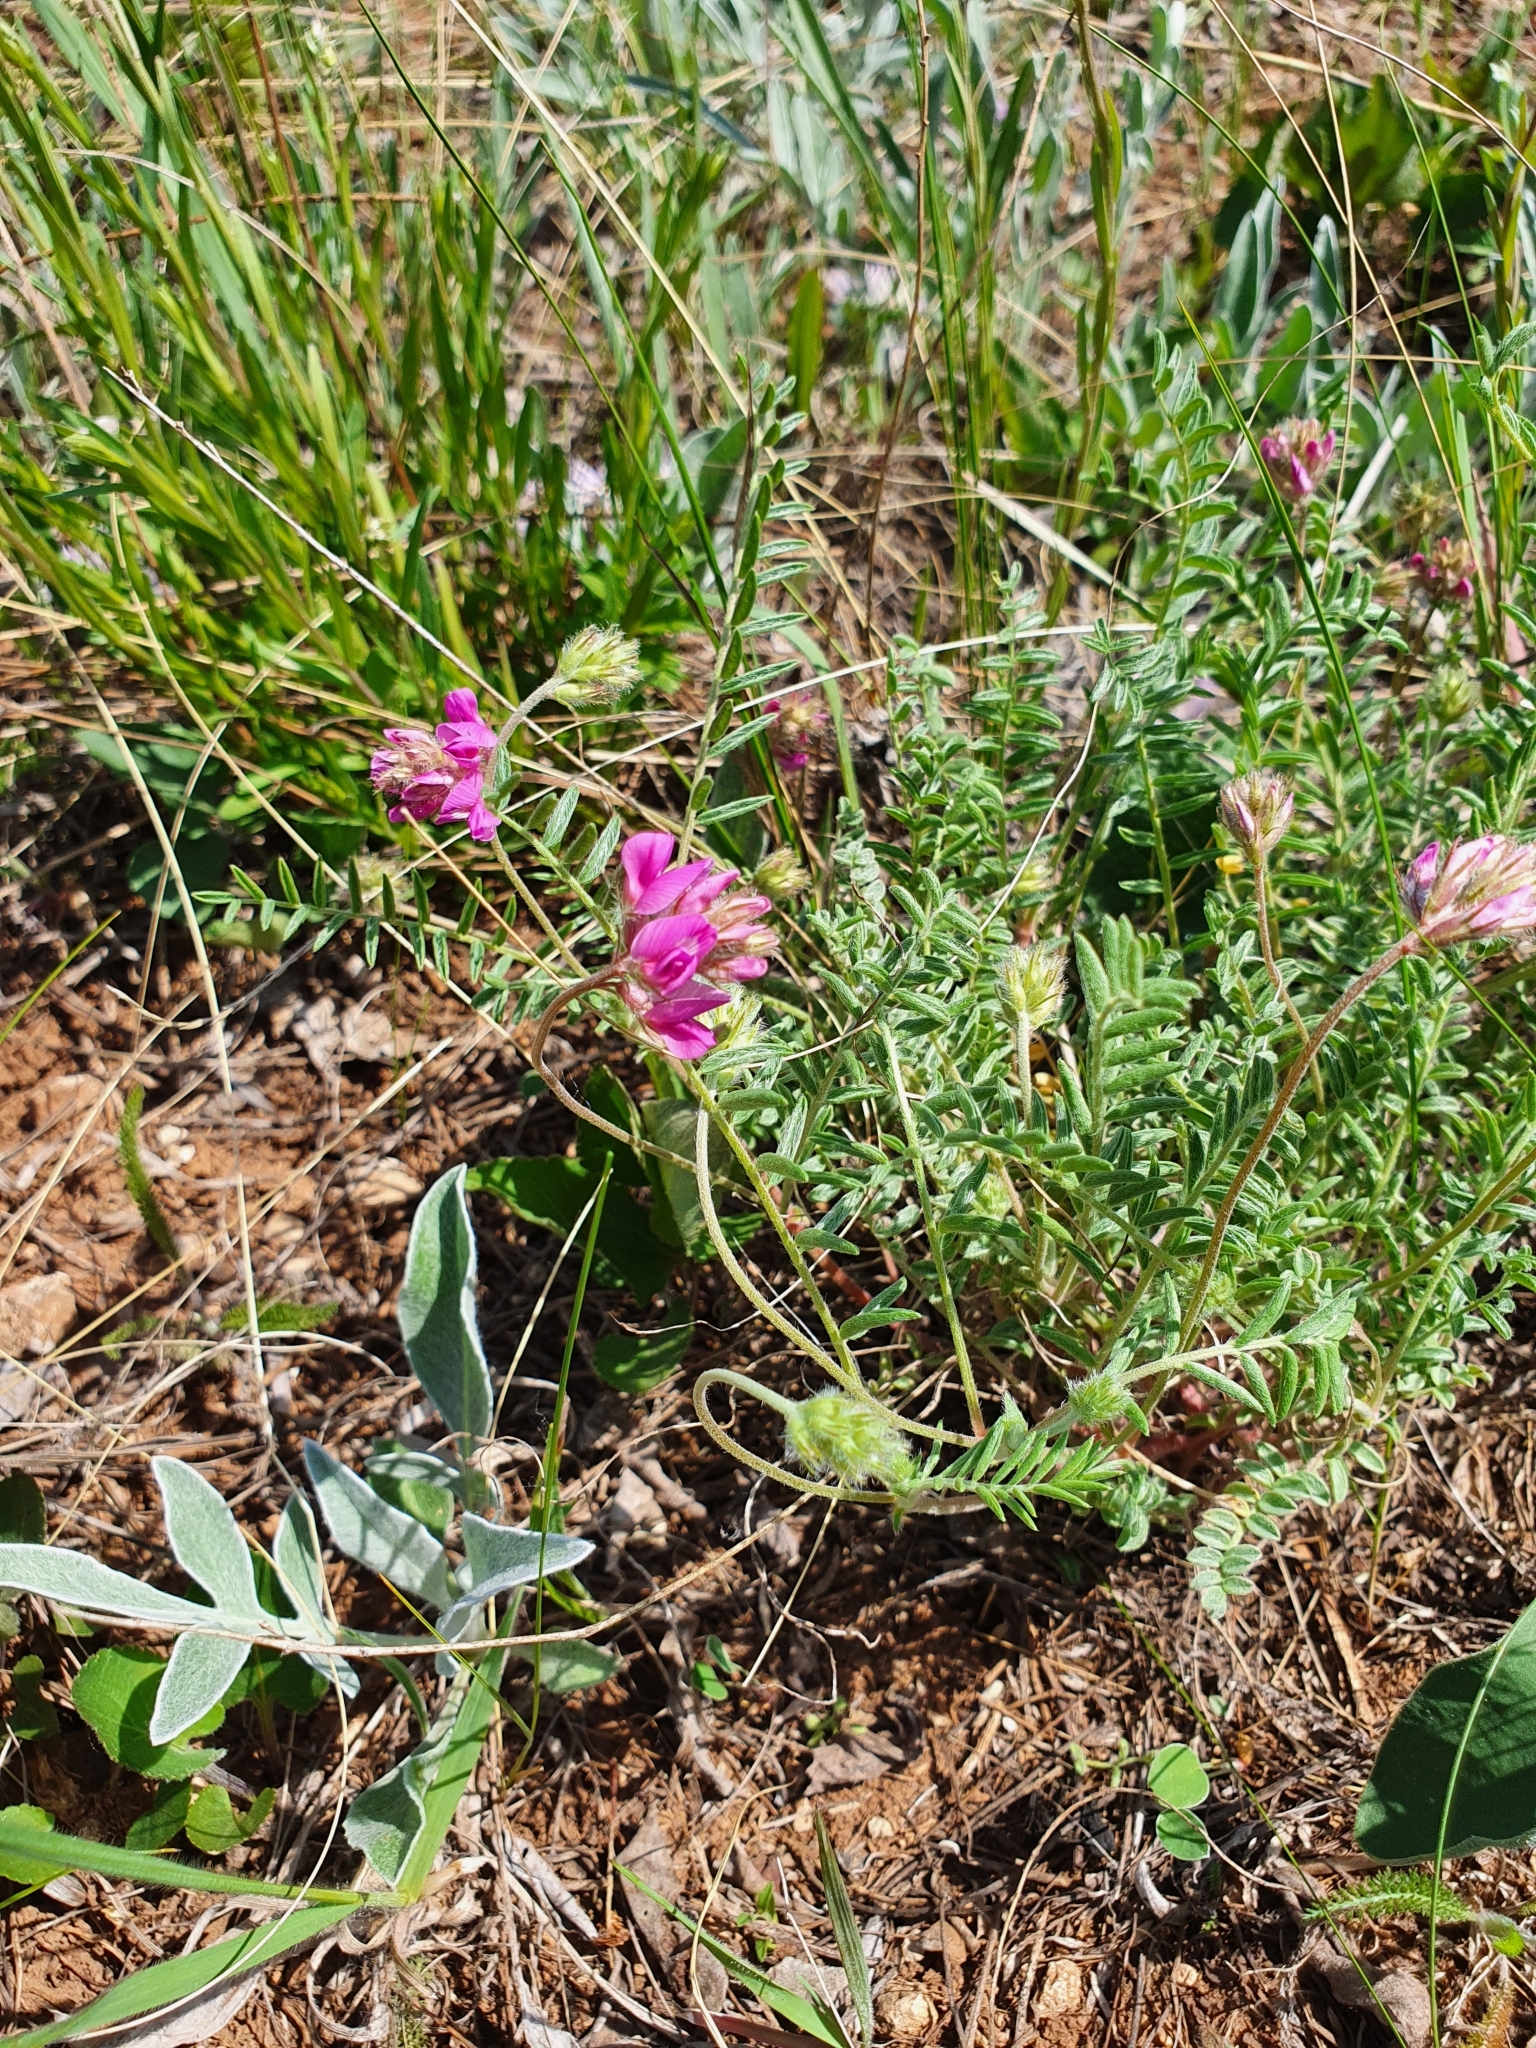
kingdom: Plantae
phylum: Tracheophyta
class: Magnoliopsida
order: Fabales
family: Fabaceae
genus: Oxytropis
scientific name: Oxytropis floribunda
